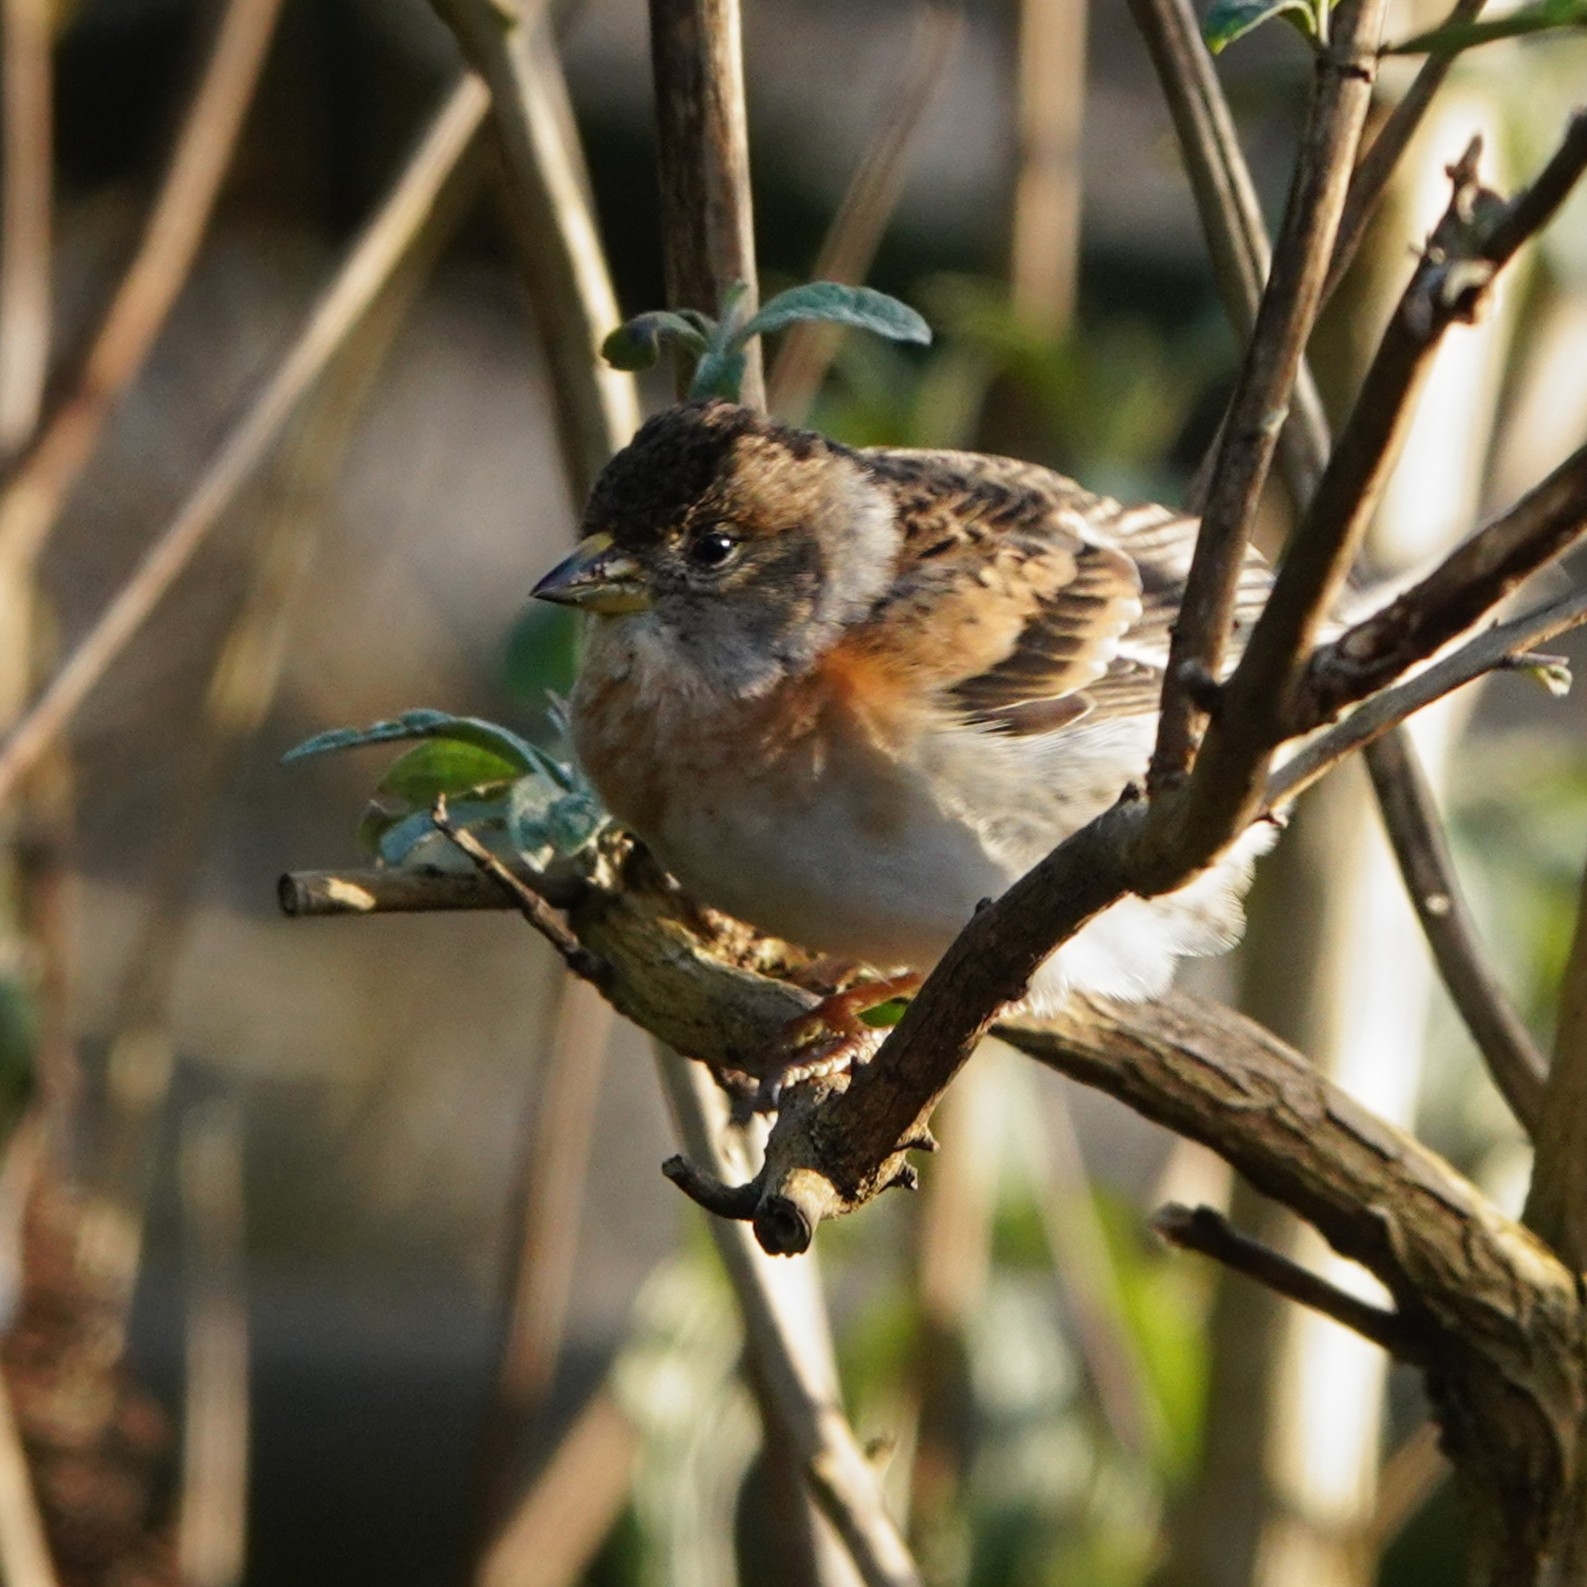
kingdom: Animalia
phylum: Chordata
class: Aves
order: Passeriformes
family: Fringillidae
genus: Fringilla
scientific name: Fringilla montifringilla
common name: Brambling
